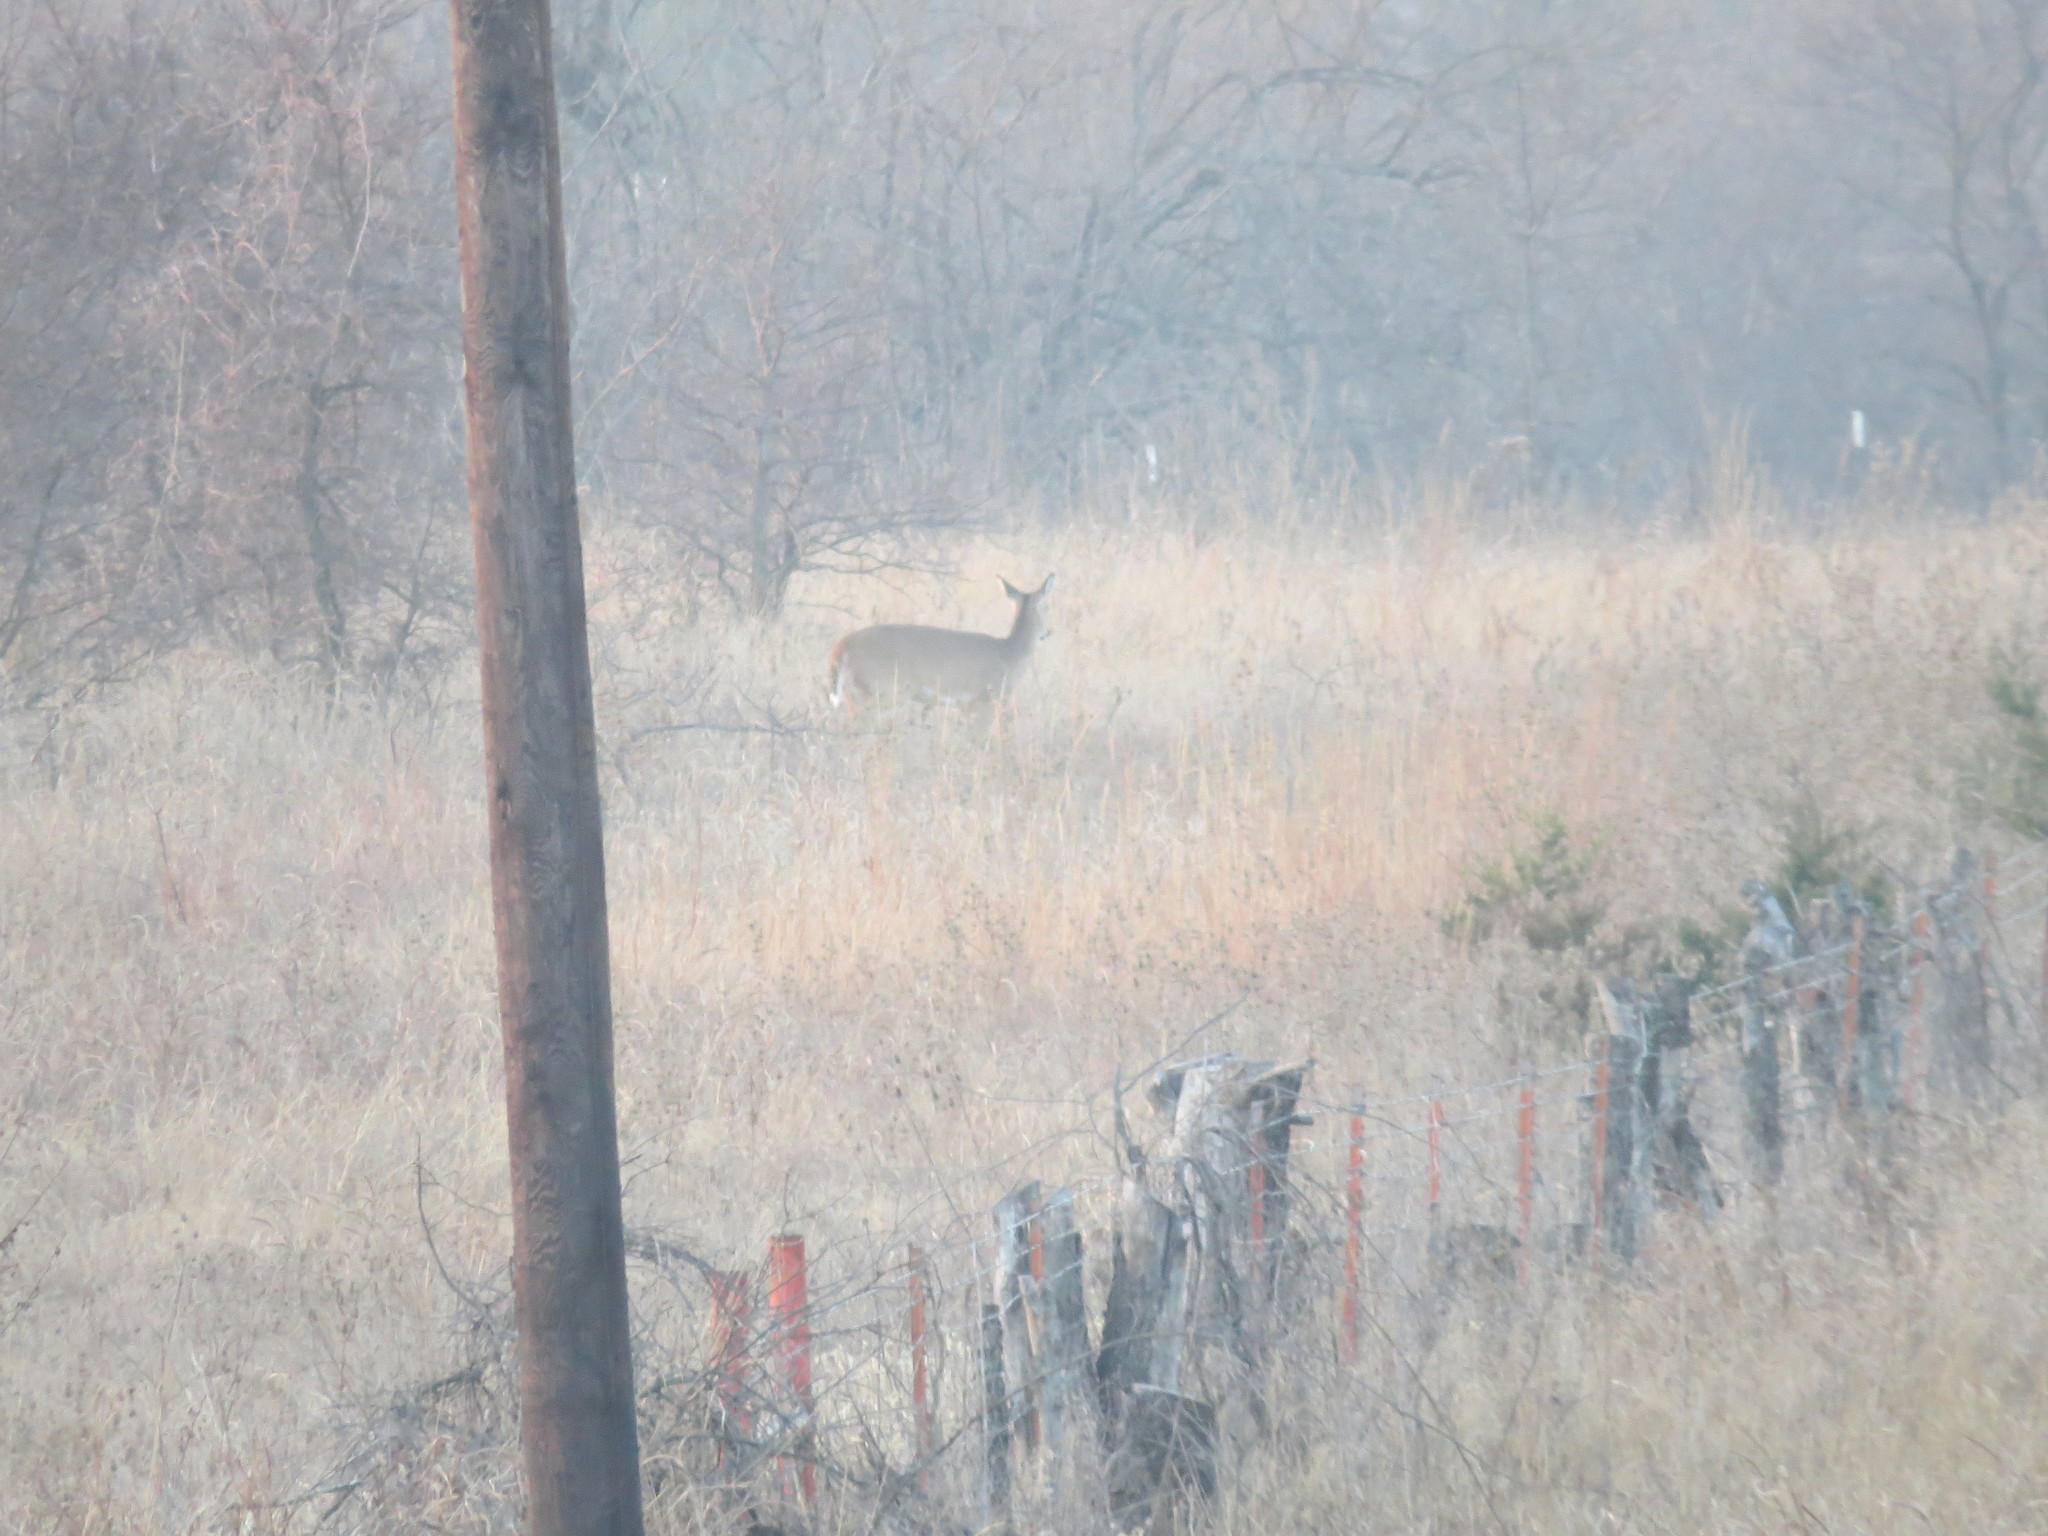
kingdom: Animalia
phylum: Chordata
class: Mammalia
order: Artiodactyla
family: Cervidae
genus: Odocoileus
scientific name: Odocoileus virginianus
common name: White-tailed deer
